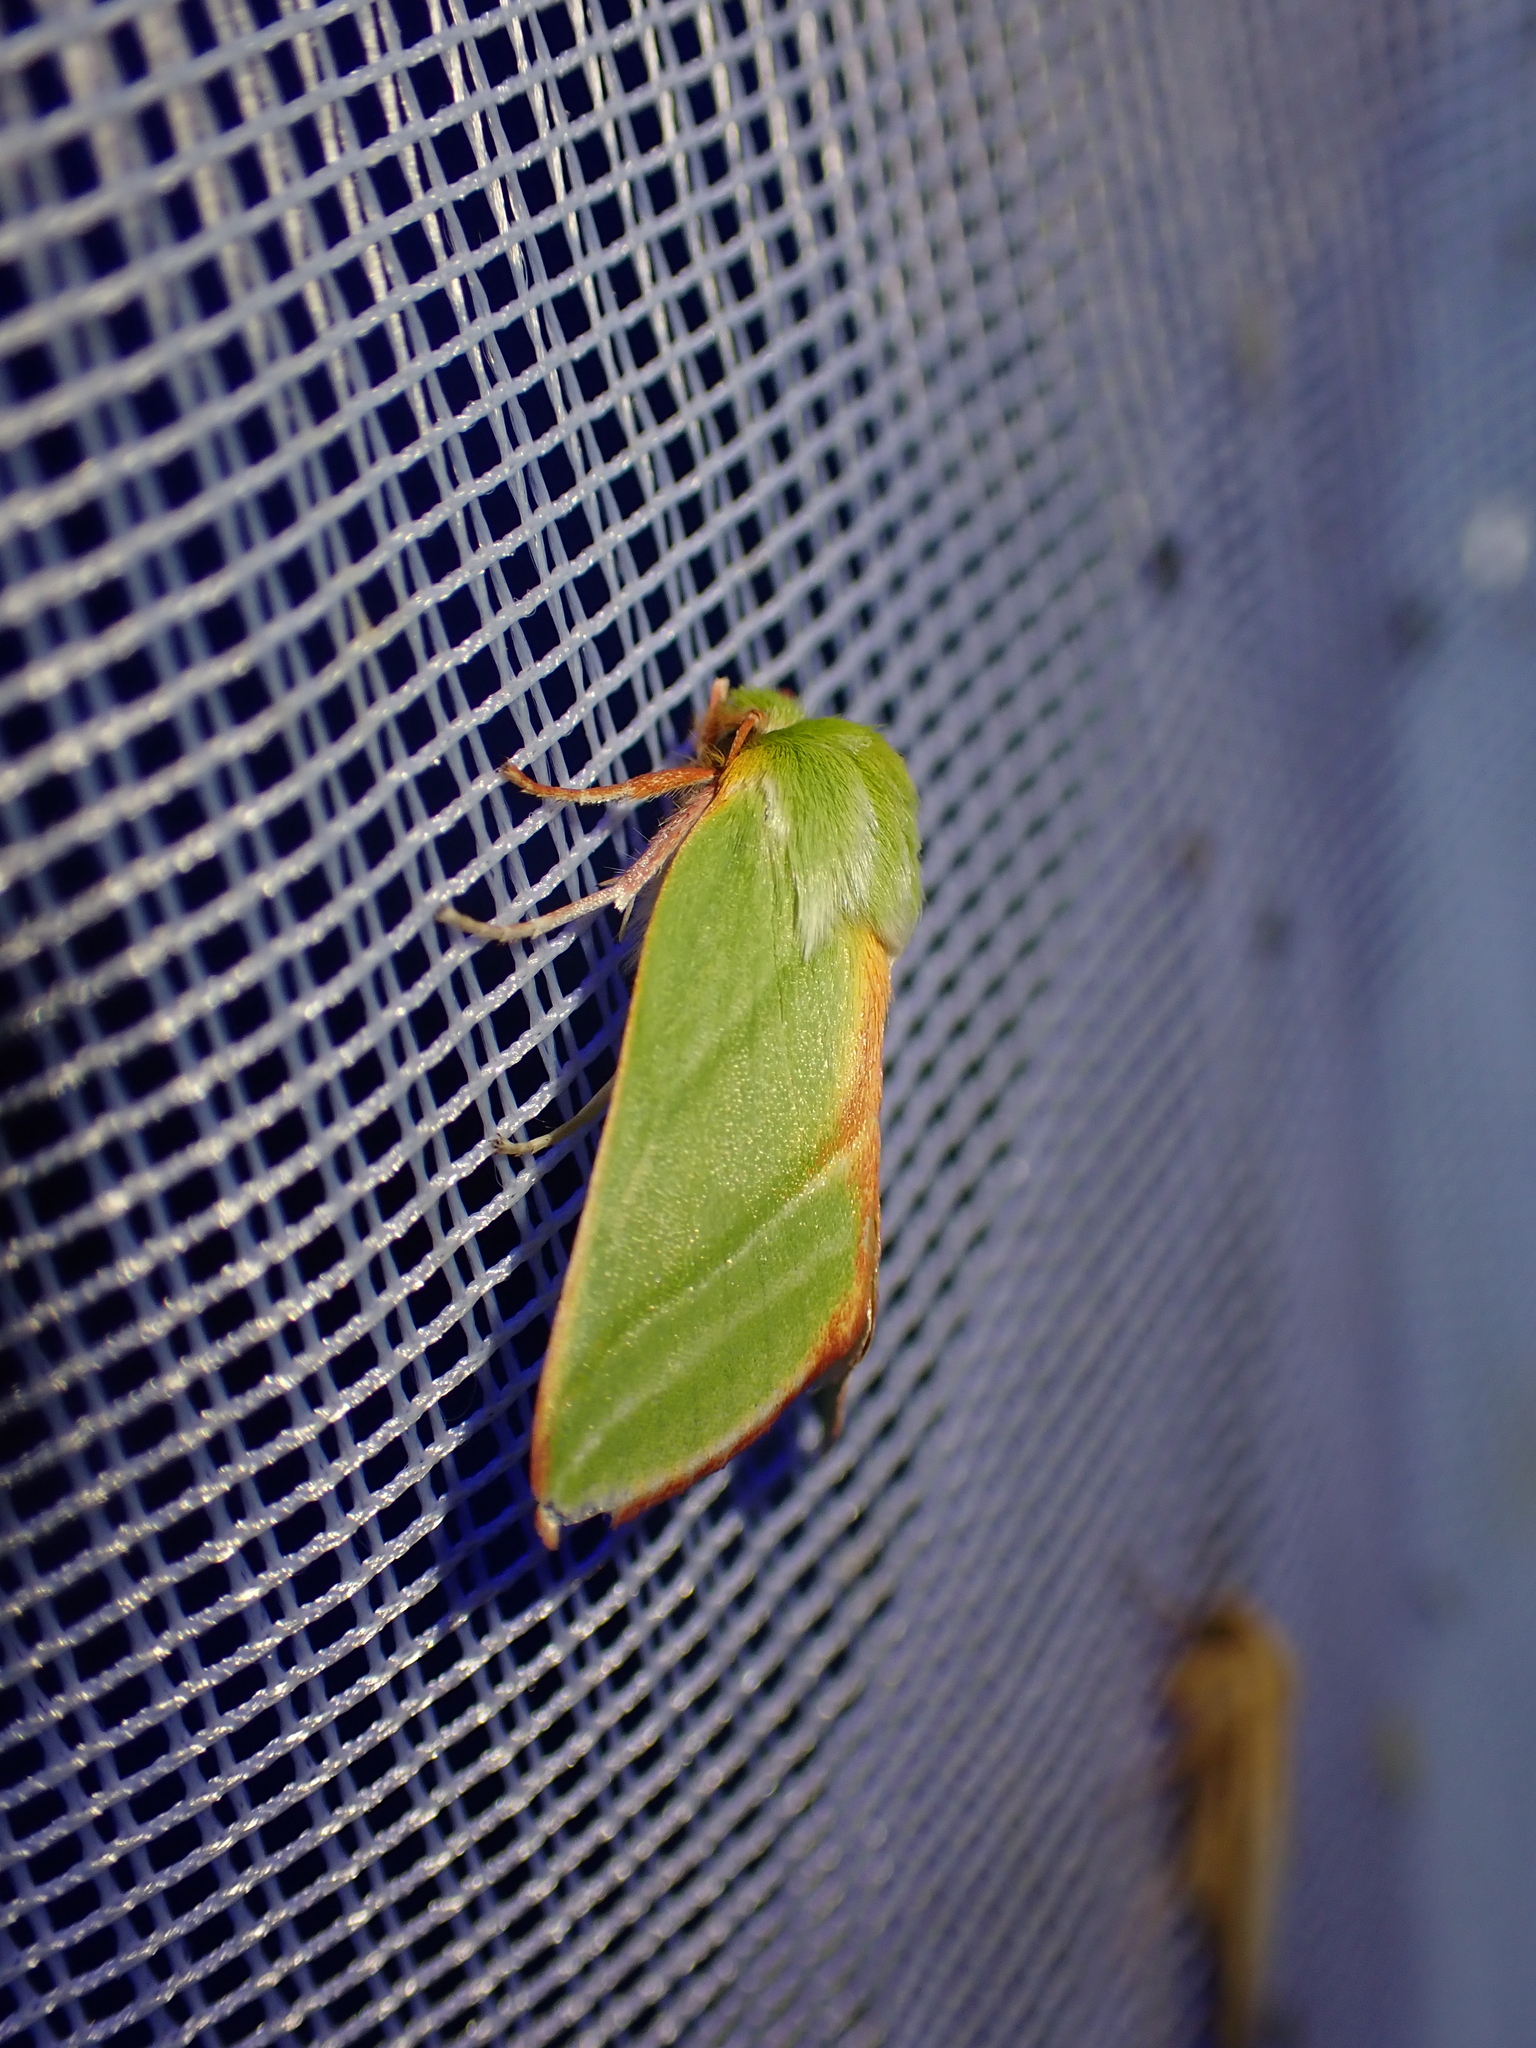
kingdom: Animalia
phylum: Arthropoda
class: Insecta
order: Lepidoptera
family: Nolidae
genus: Pseudoips
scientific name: Pseudoips prasinana
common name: Green silver-lines
